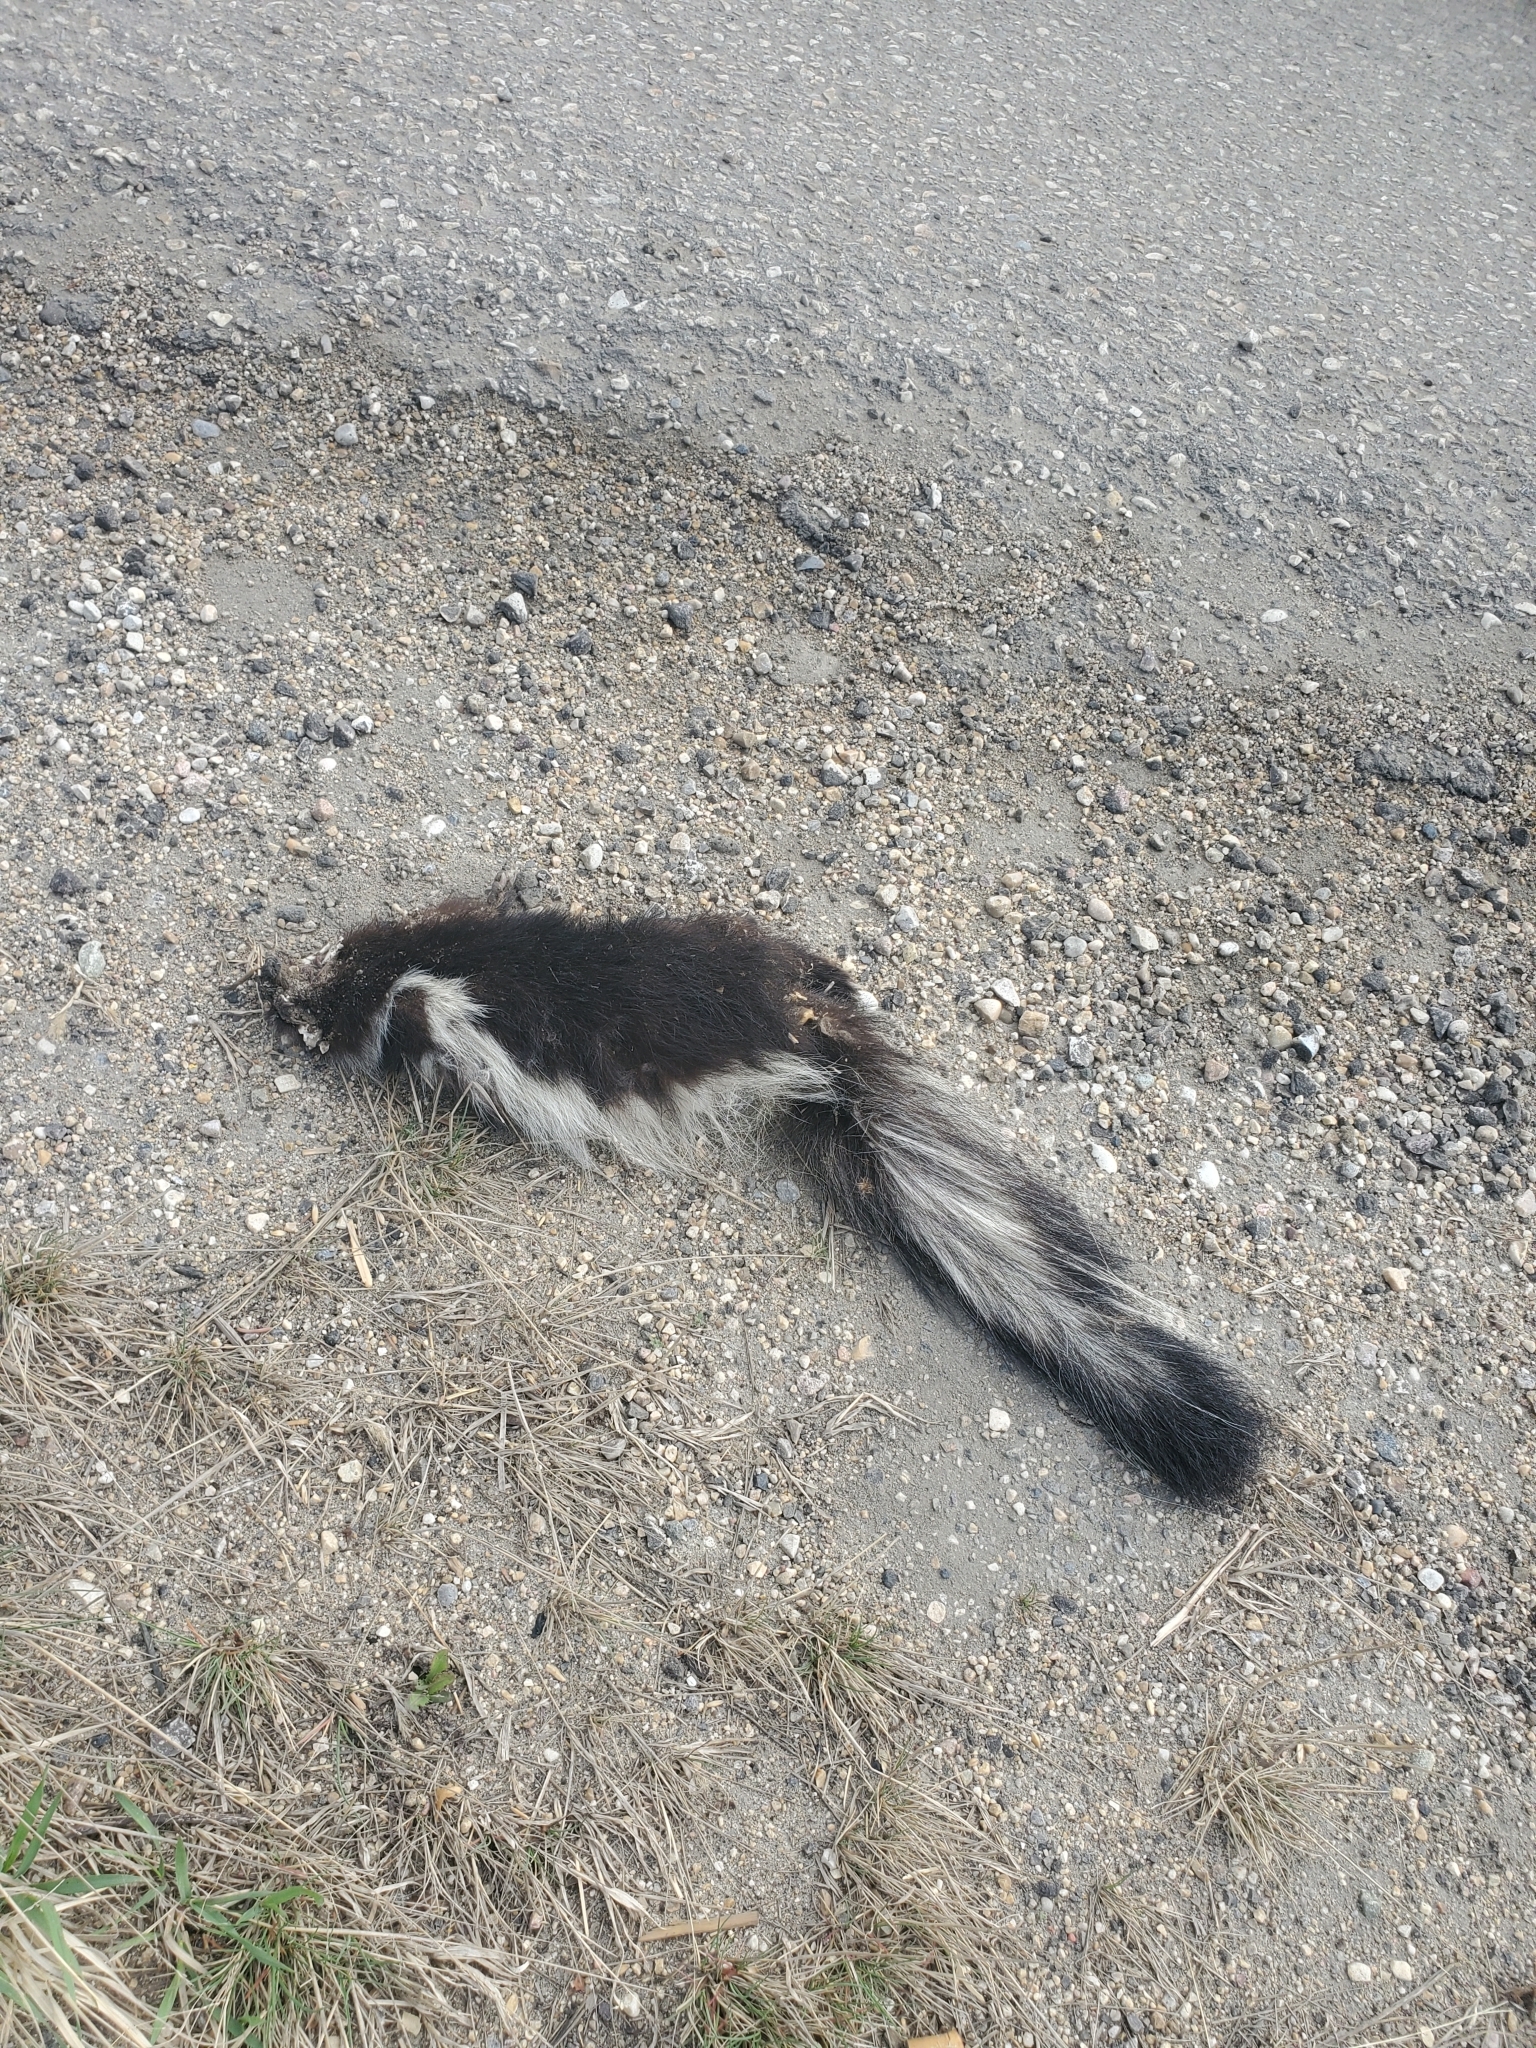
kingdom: Animalia
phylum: Chordata
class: Mammalia
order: Carnivora
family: Mephitidae
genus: Mephitis
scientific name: Mephitis mephitis
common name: Striped skunk
